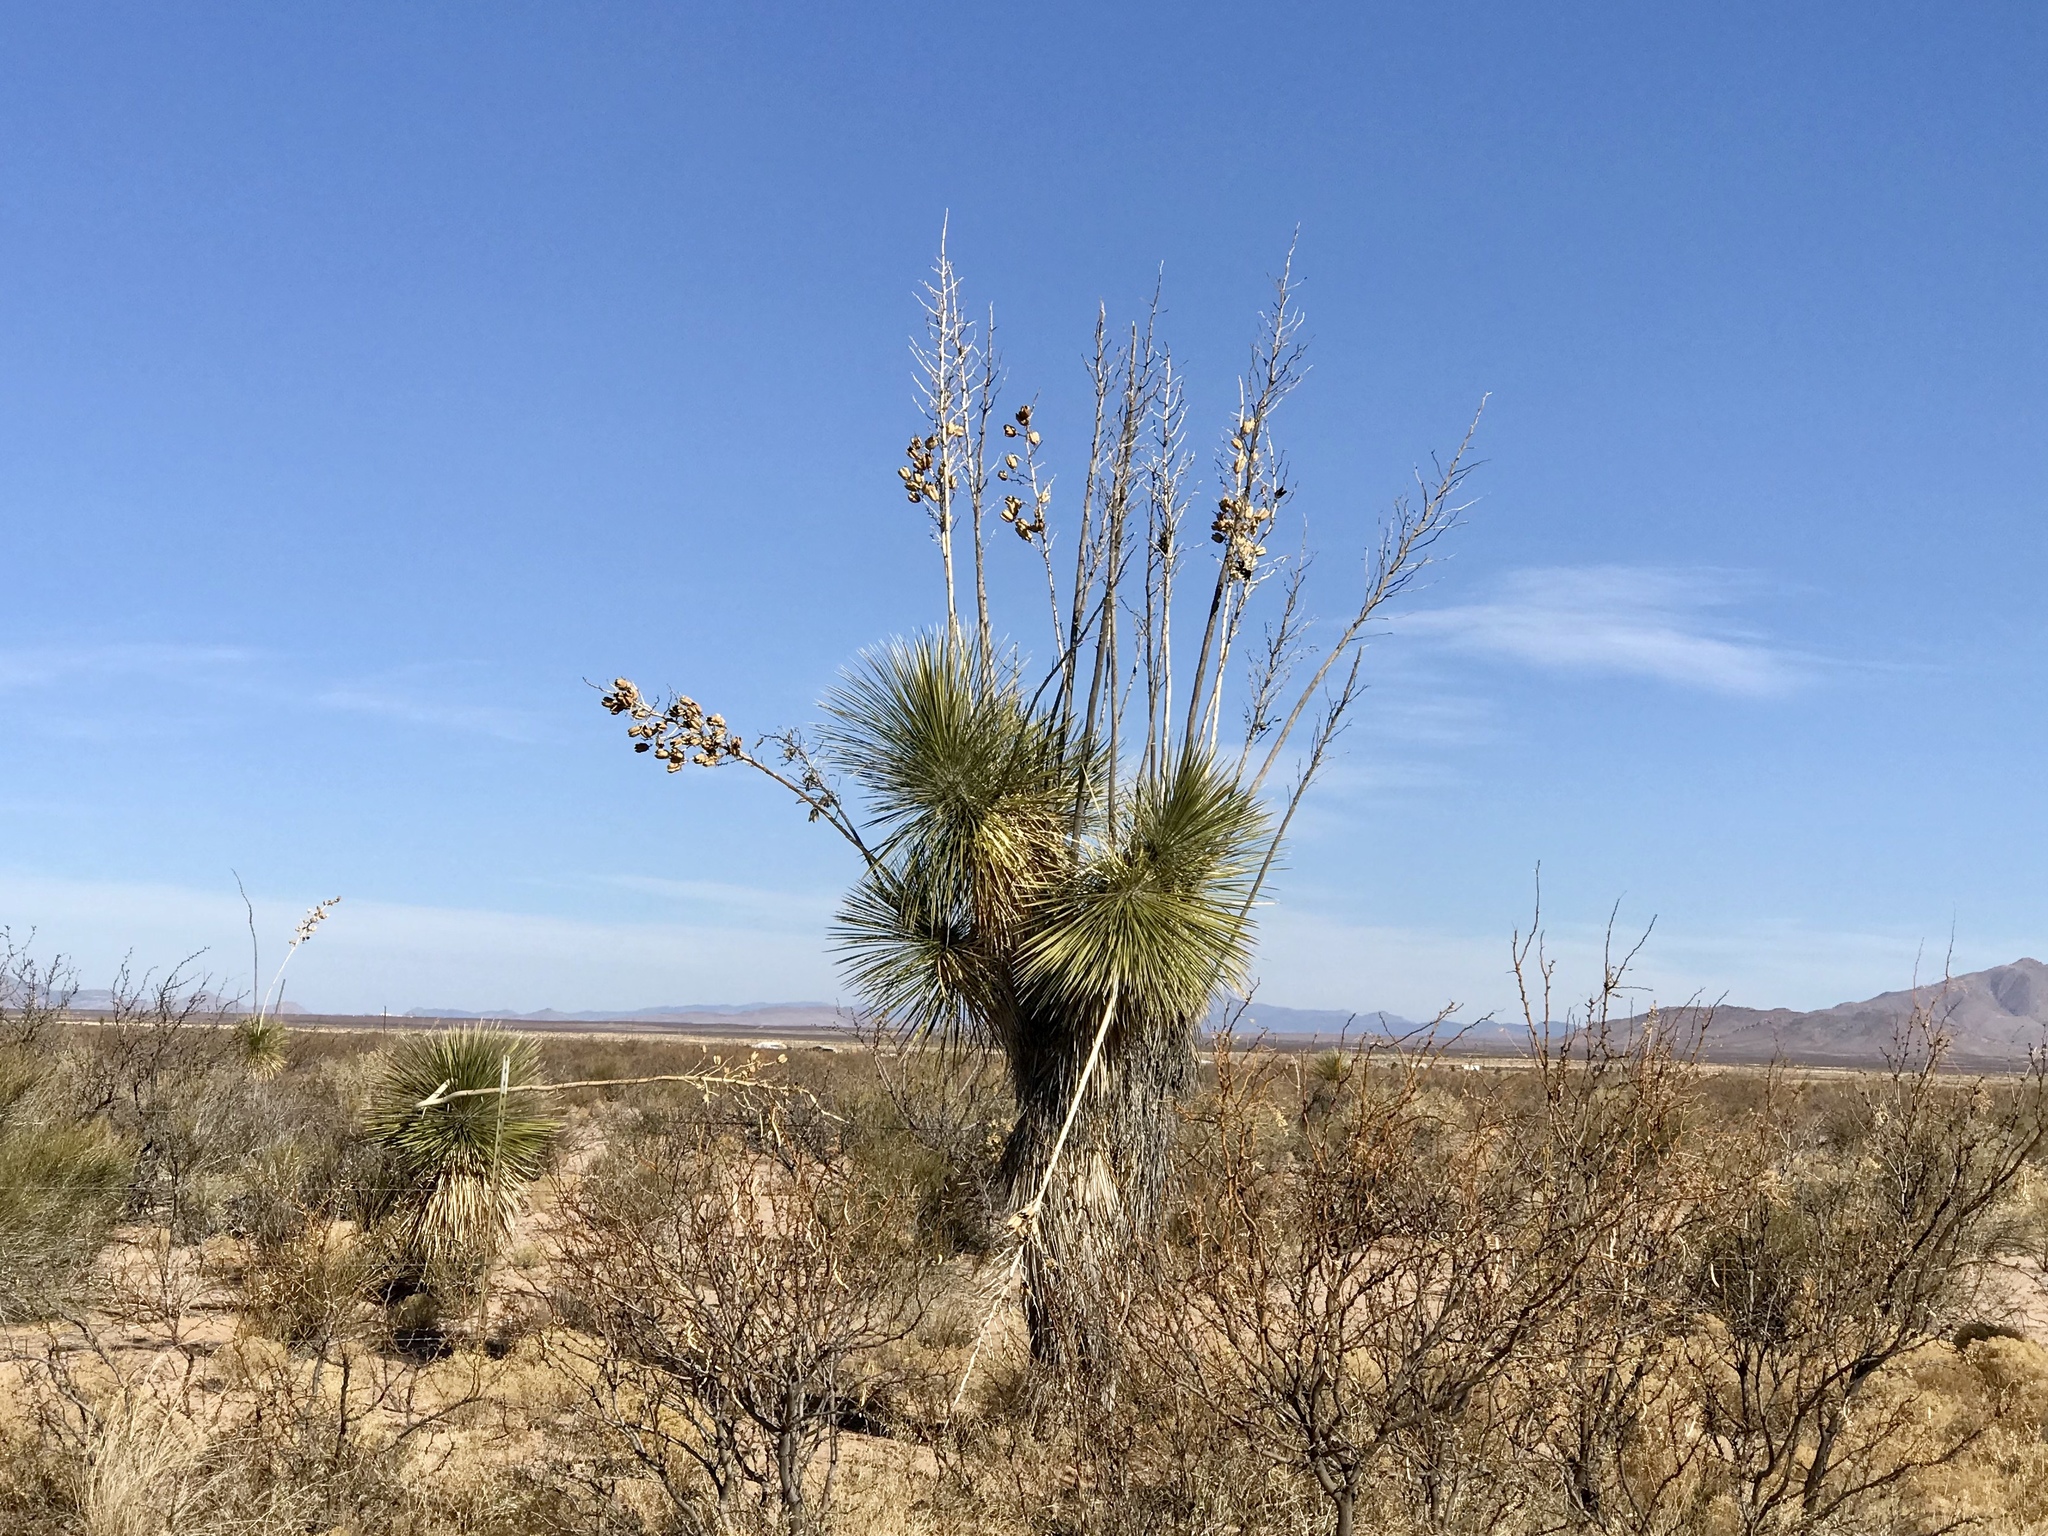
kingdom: Plantae
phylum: Tracheophyta
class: Liliopsida
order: Asparagales
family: Asparagaceae
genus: Yucca
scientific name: Yucca elata
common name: Palmella
